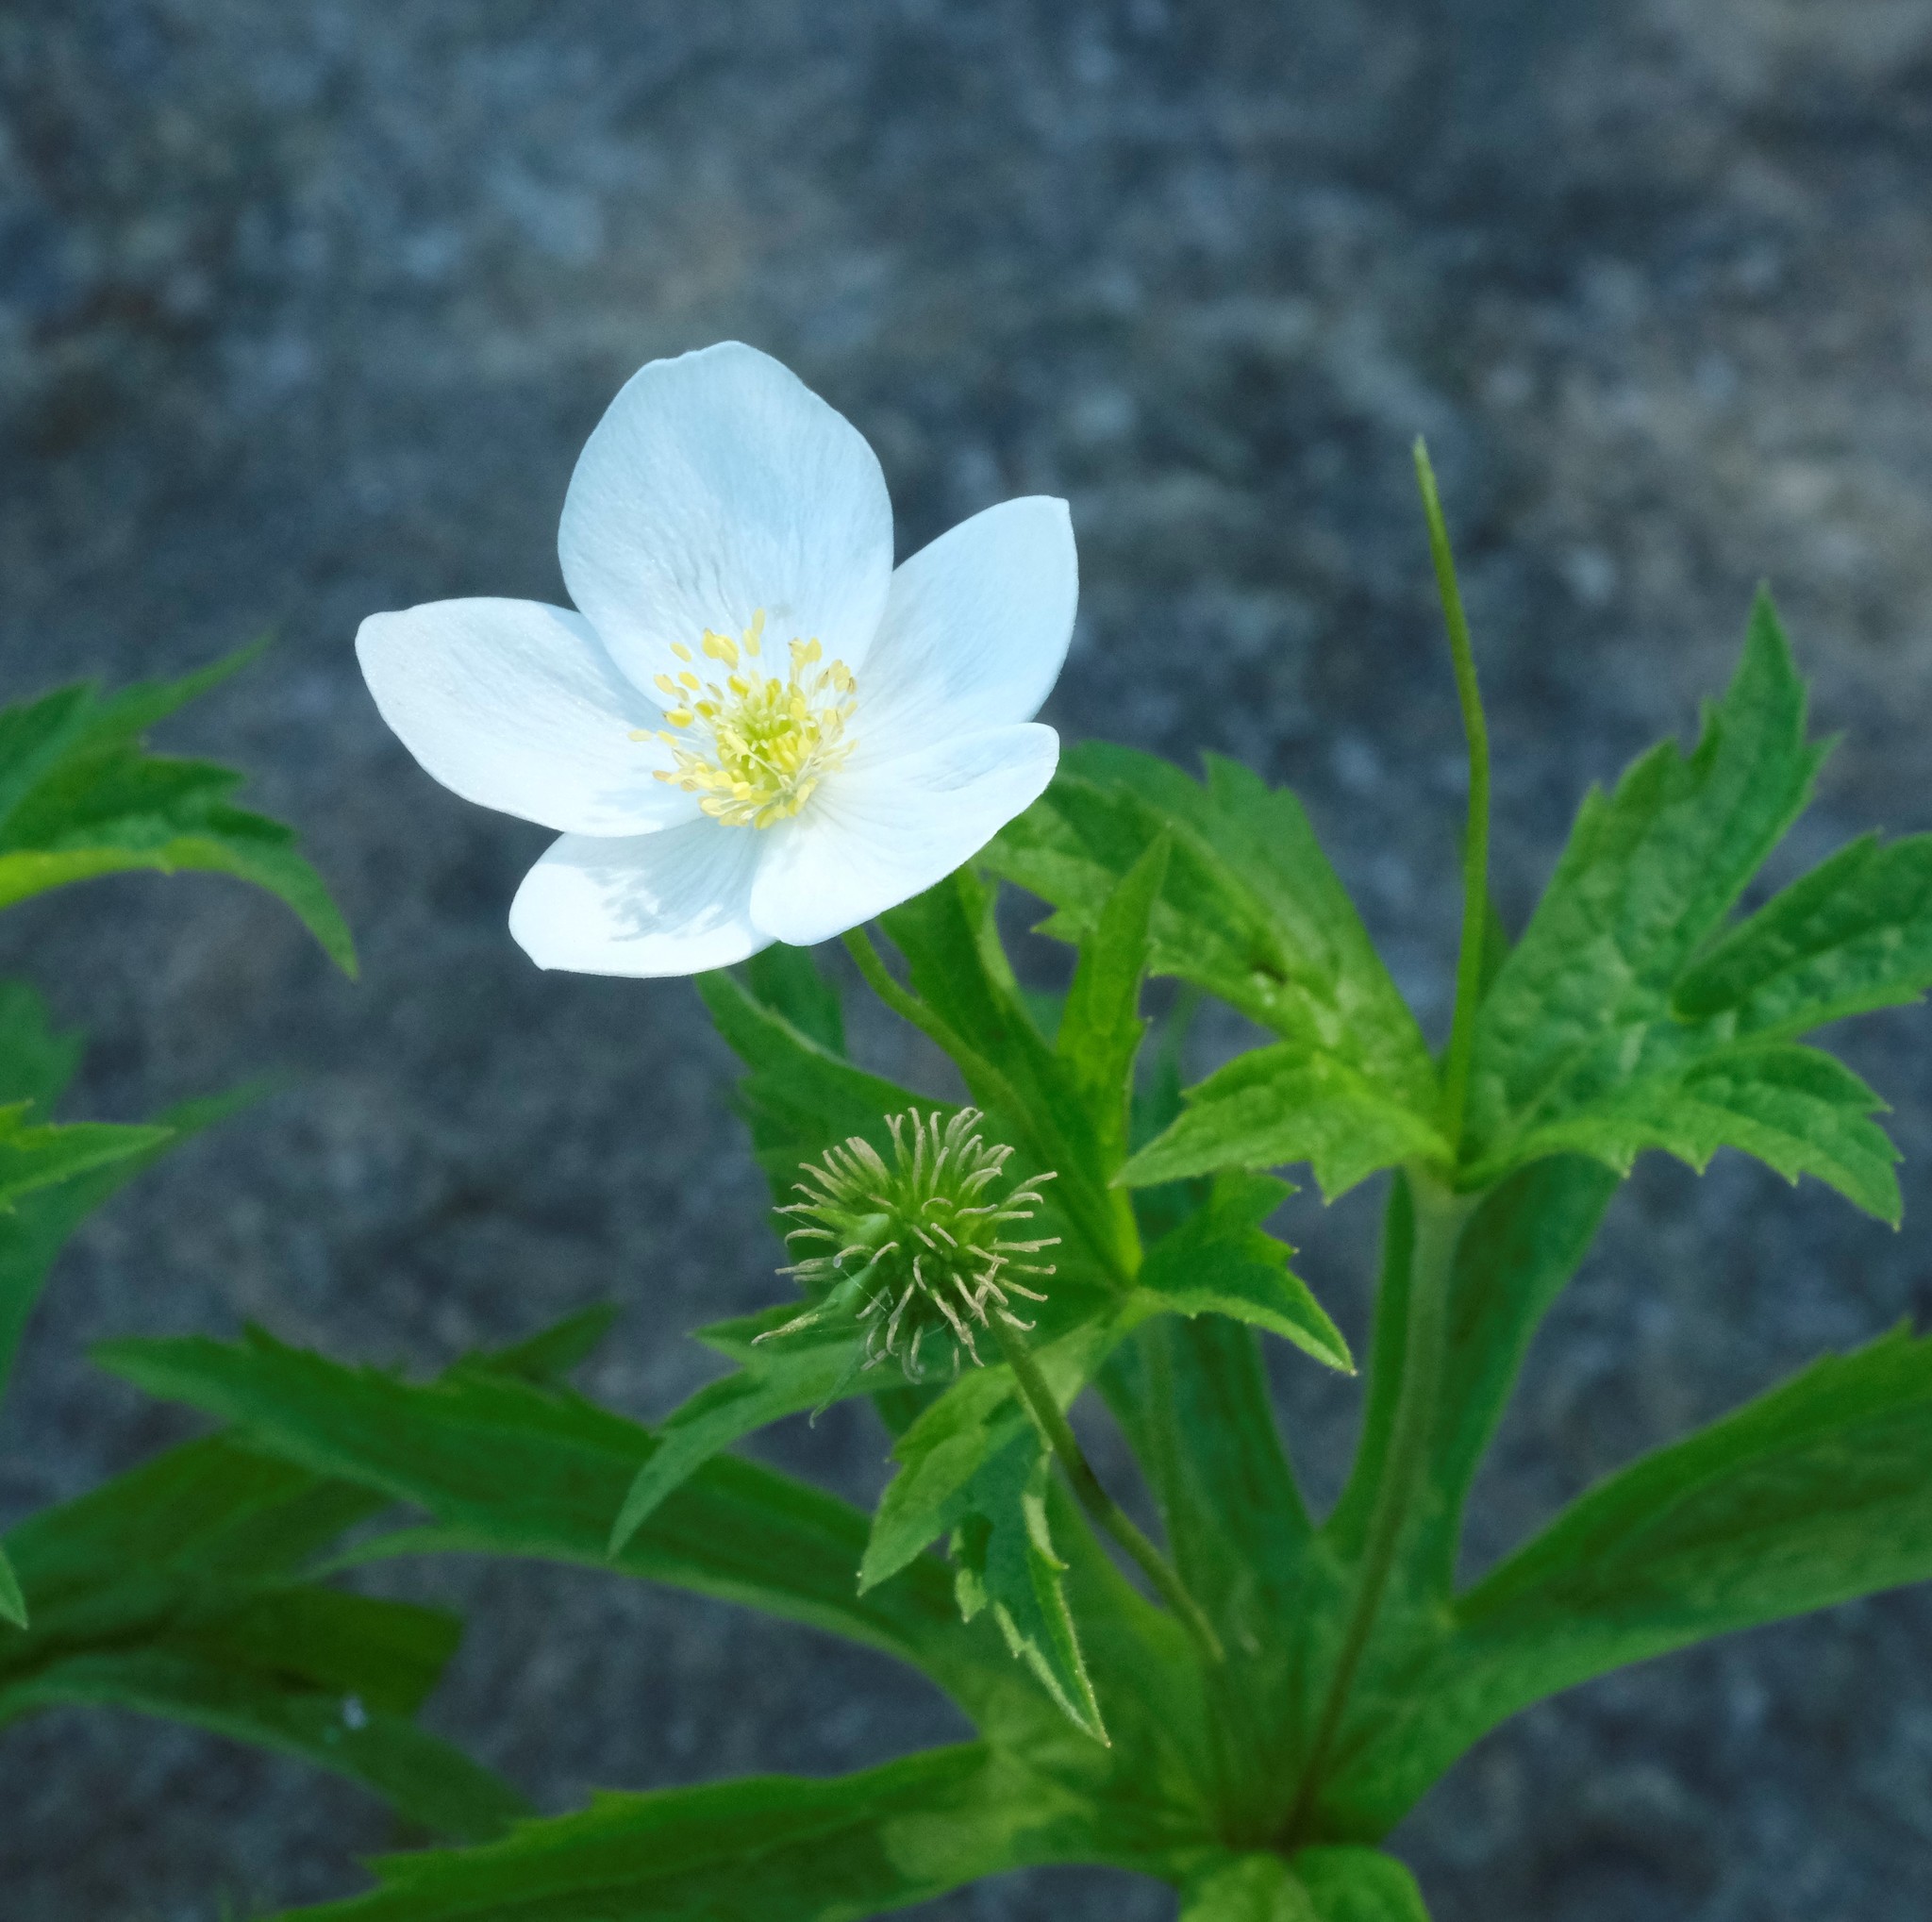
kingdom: Plantae
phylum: Tracheophyta
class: Magnoliopsida
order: Ranunculales
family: Ranunculaceae
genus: Anemonastrum
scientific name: Anemonastrum canadense
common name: Canada anemone
